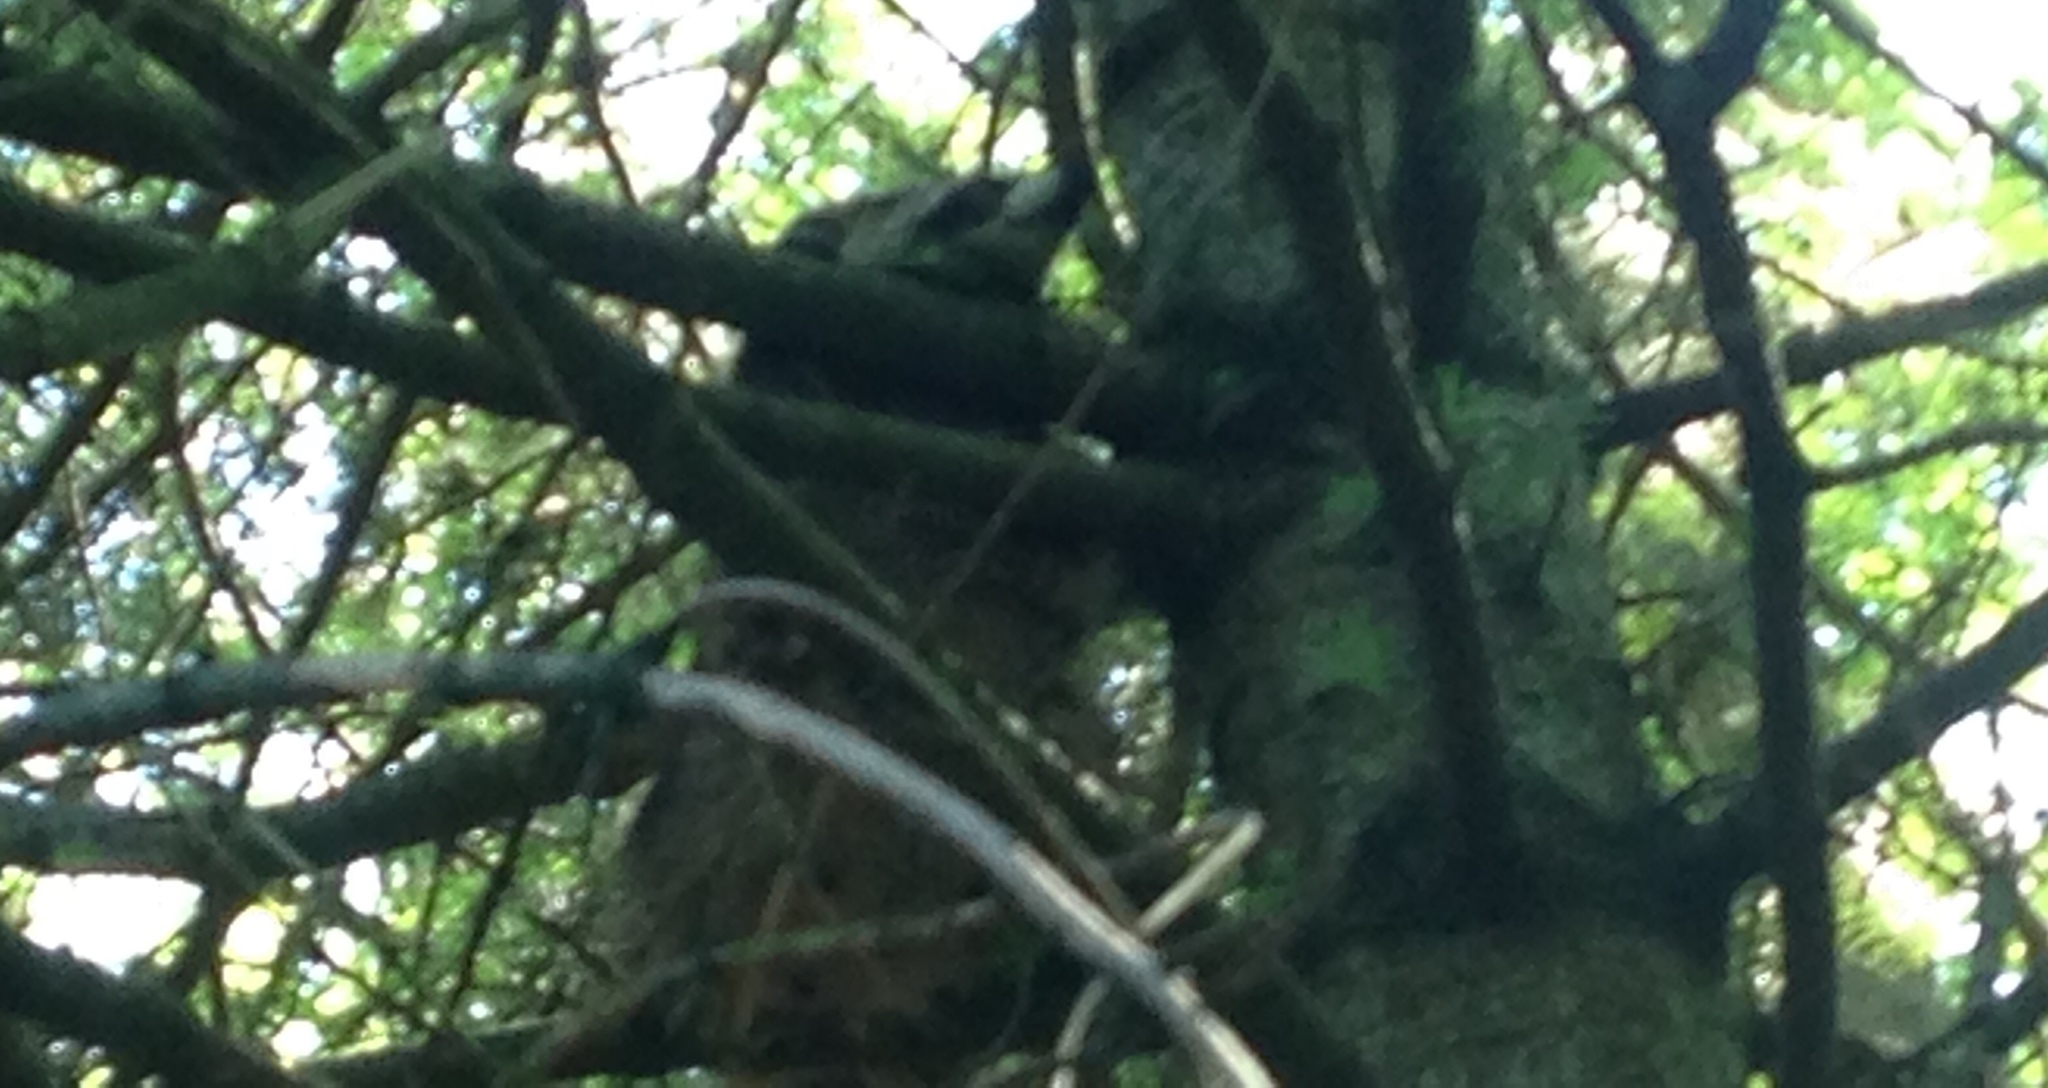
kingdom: Animalia
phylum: Chordata
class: Mammalia
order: Carnivora
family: Procyonidae
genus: Procyon
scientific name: Procyon lotor
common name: Raccoon
